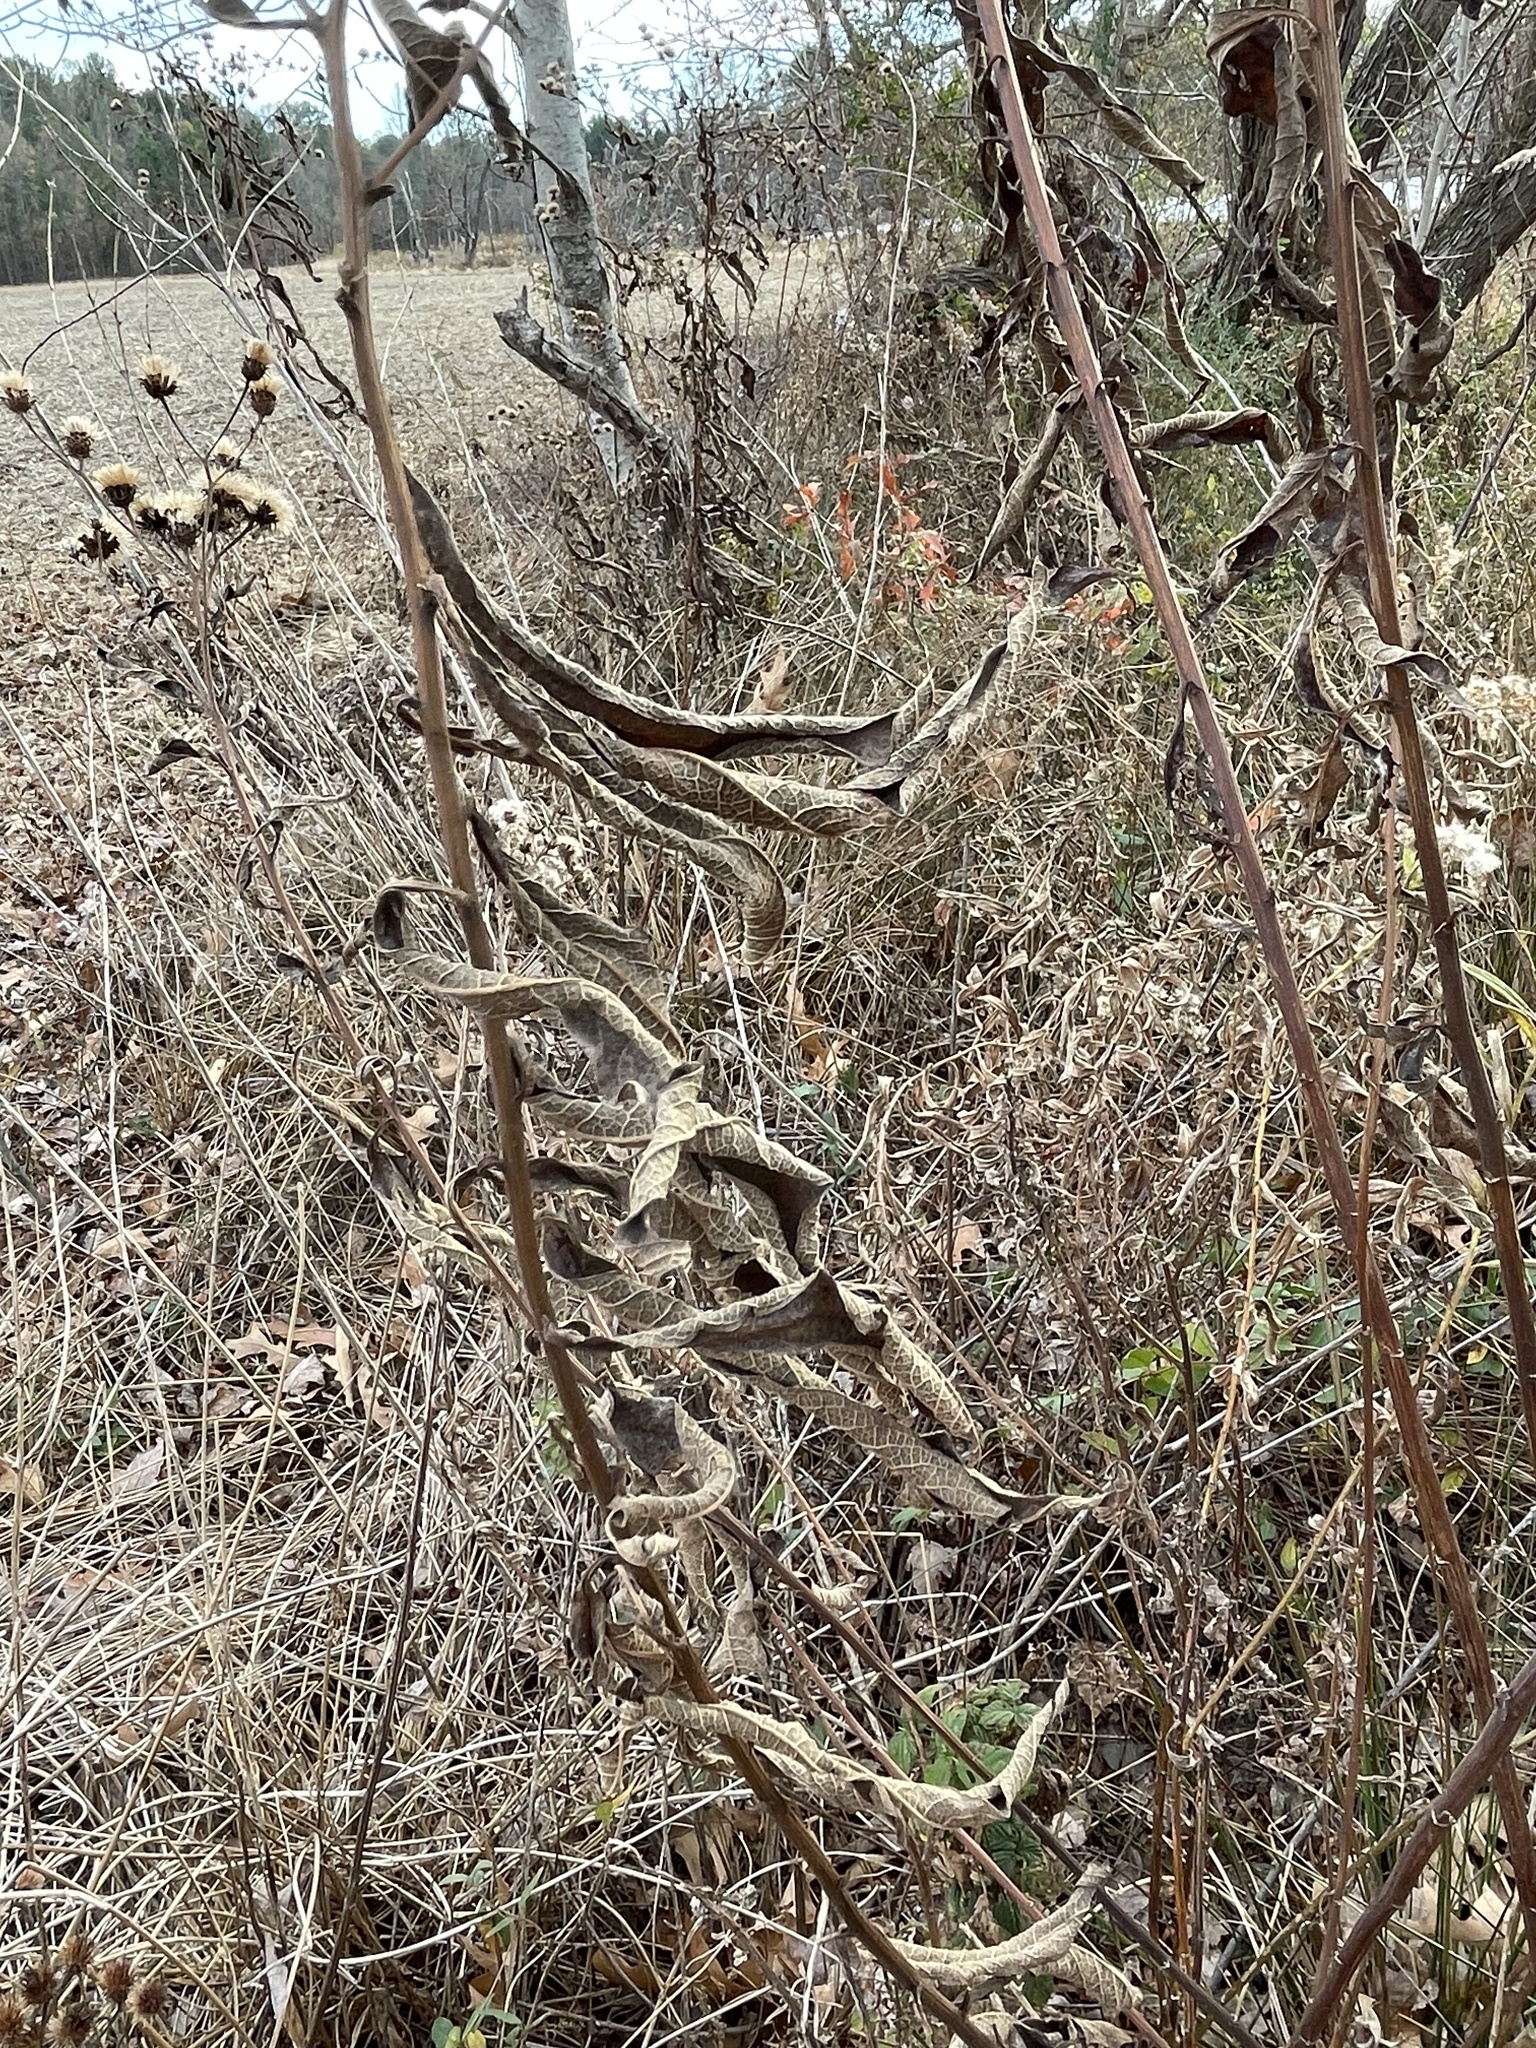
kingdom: Plantae
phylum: Tracheophyta
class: Magnoliopsida
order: Asterales
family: Asteraceae
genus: Vernonia
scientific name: Vernonia noveboracensis
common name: New york ironweed
